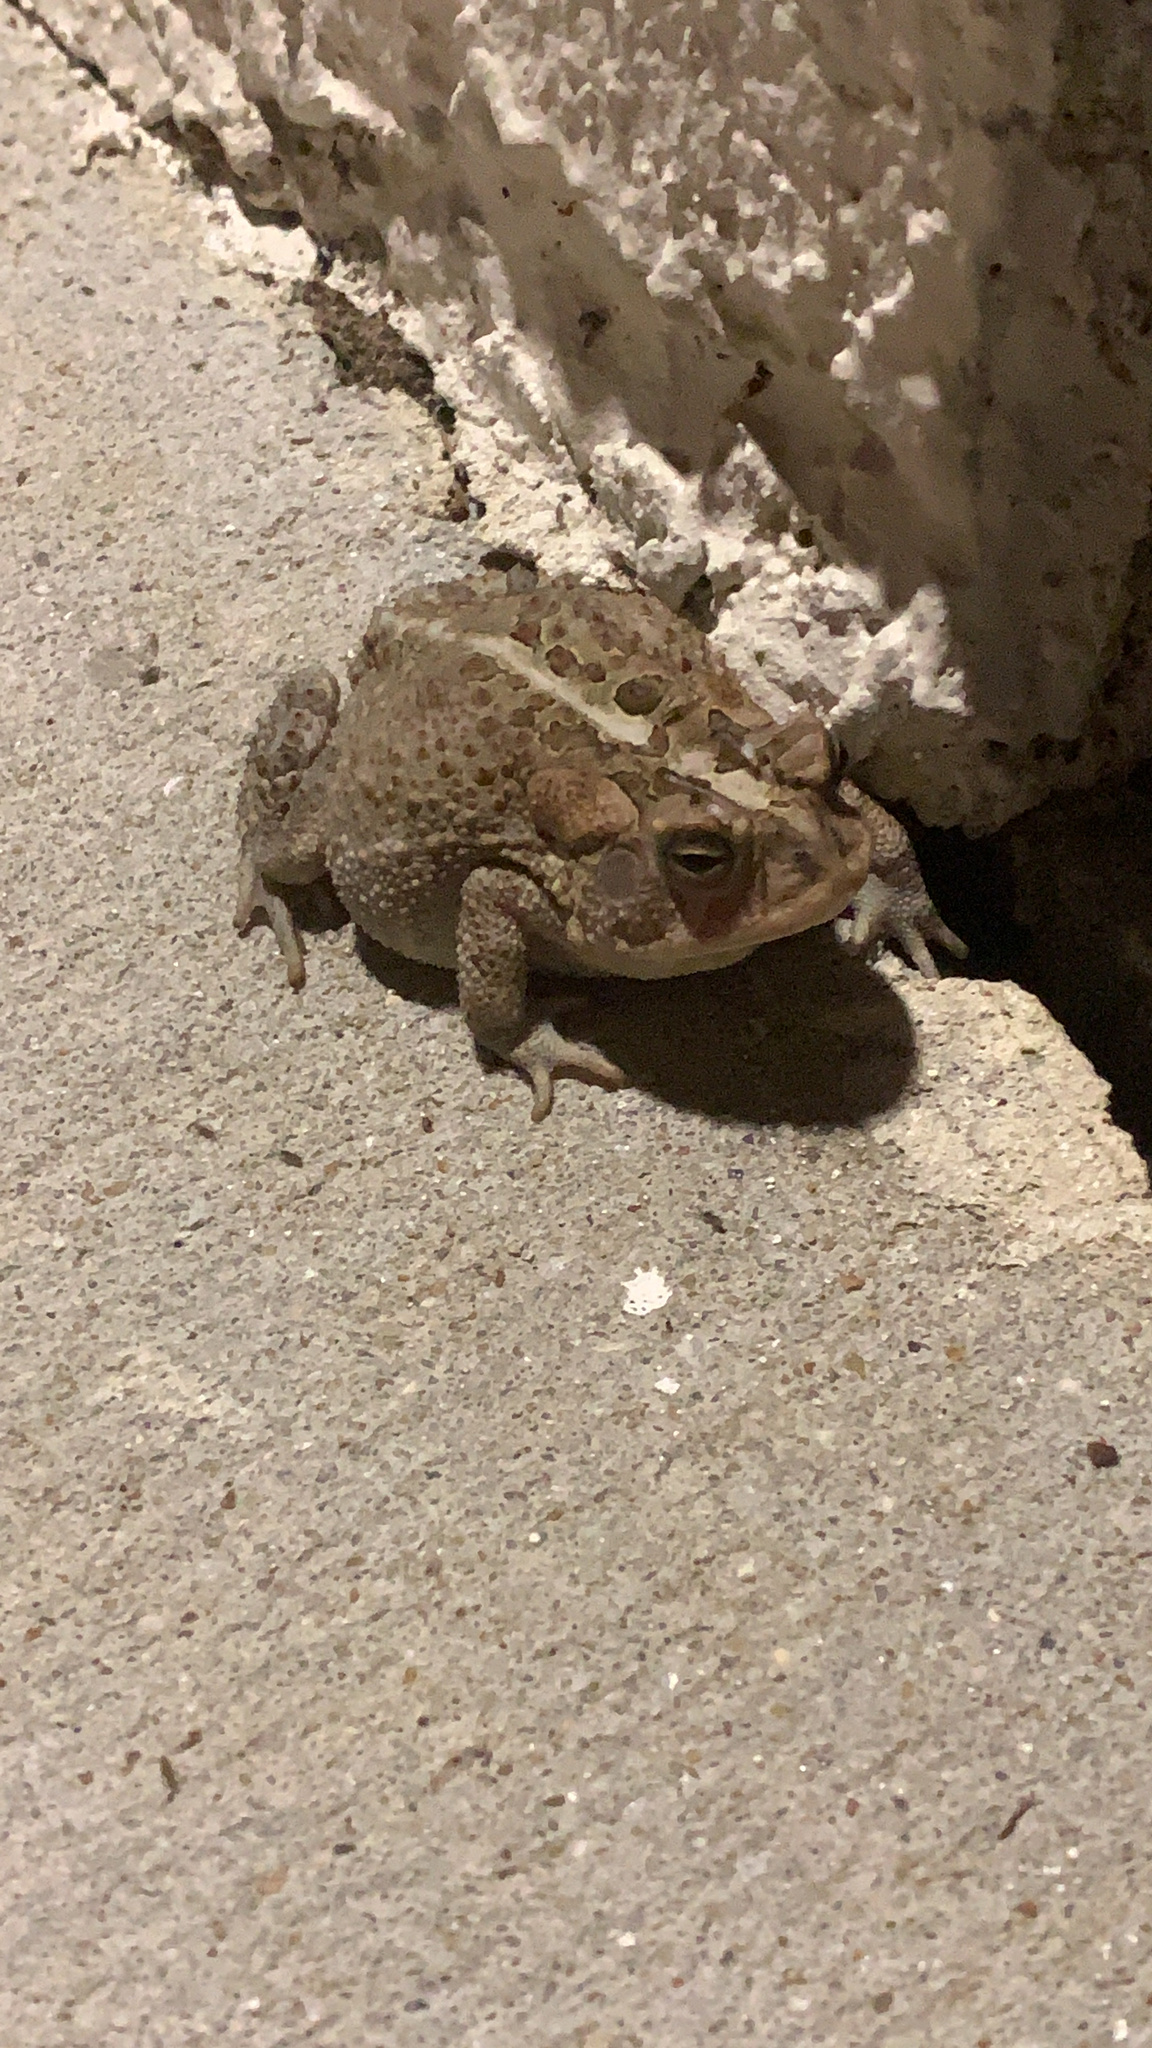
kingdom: Animalia
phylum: Chordata
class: Amphibia
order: Anura
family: Bufonidae
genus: Anaxyrus
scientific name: Anaxyrus terrestris
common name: Southern toad
